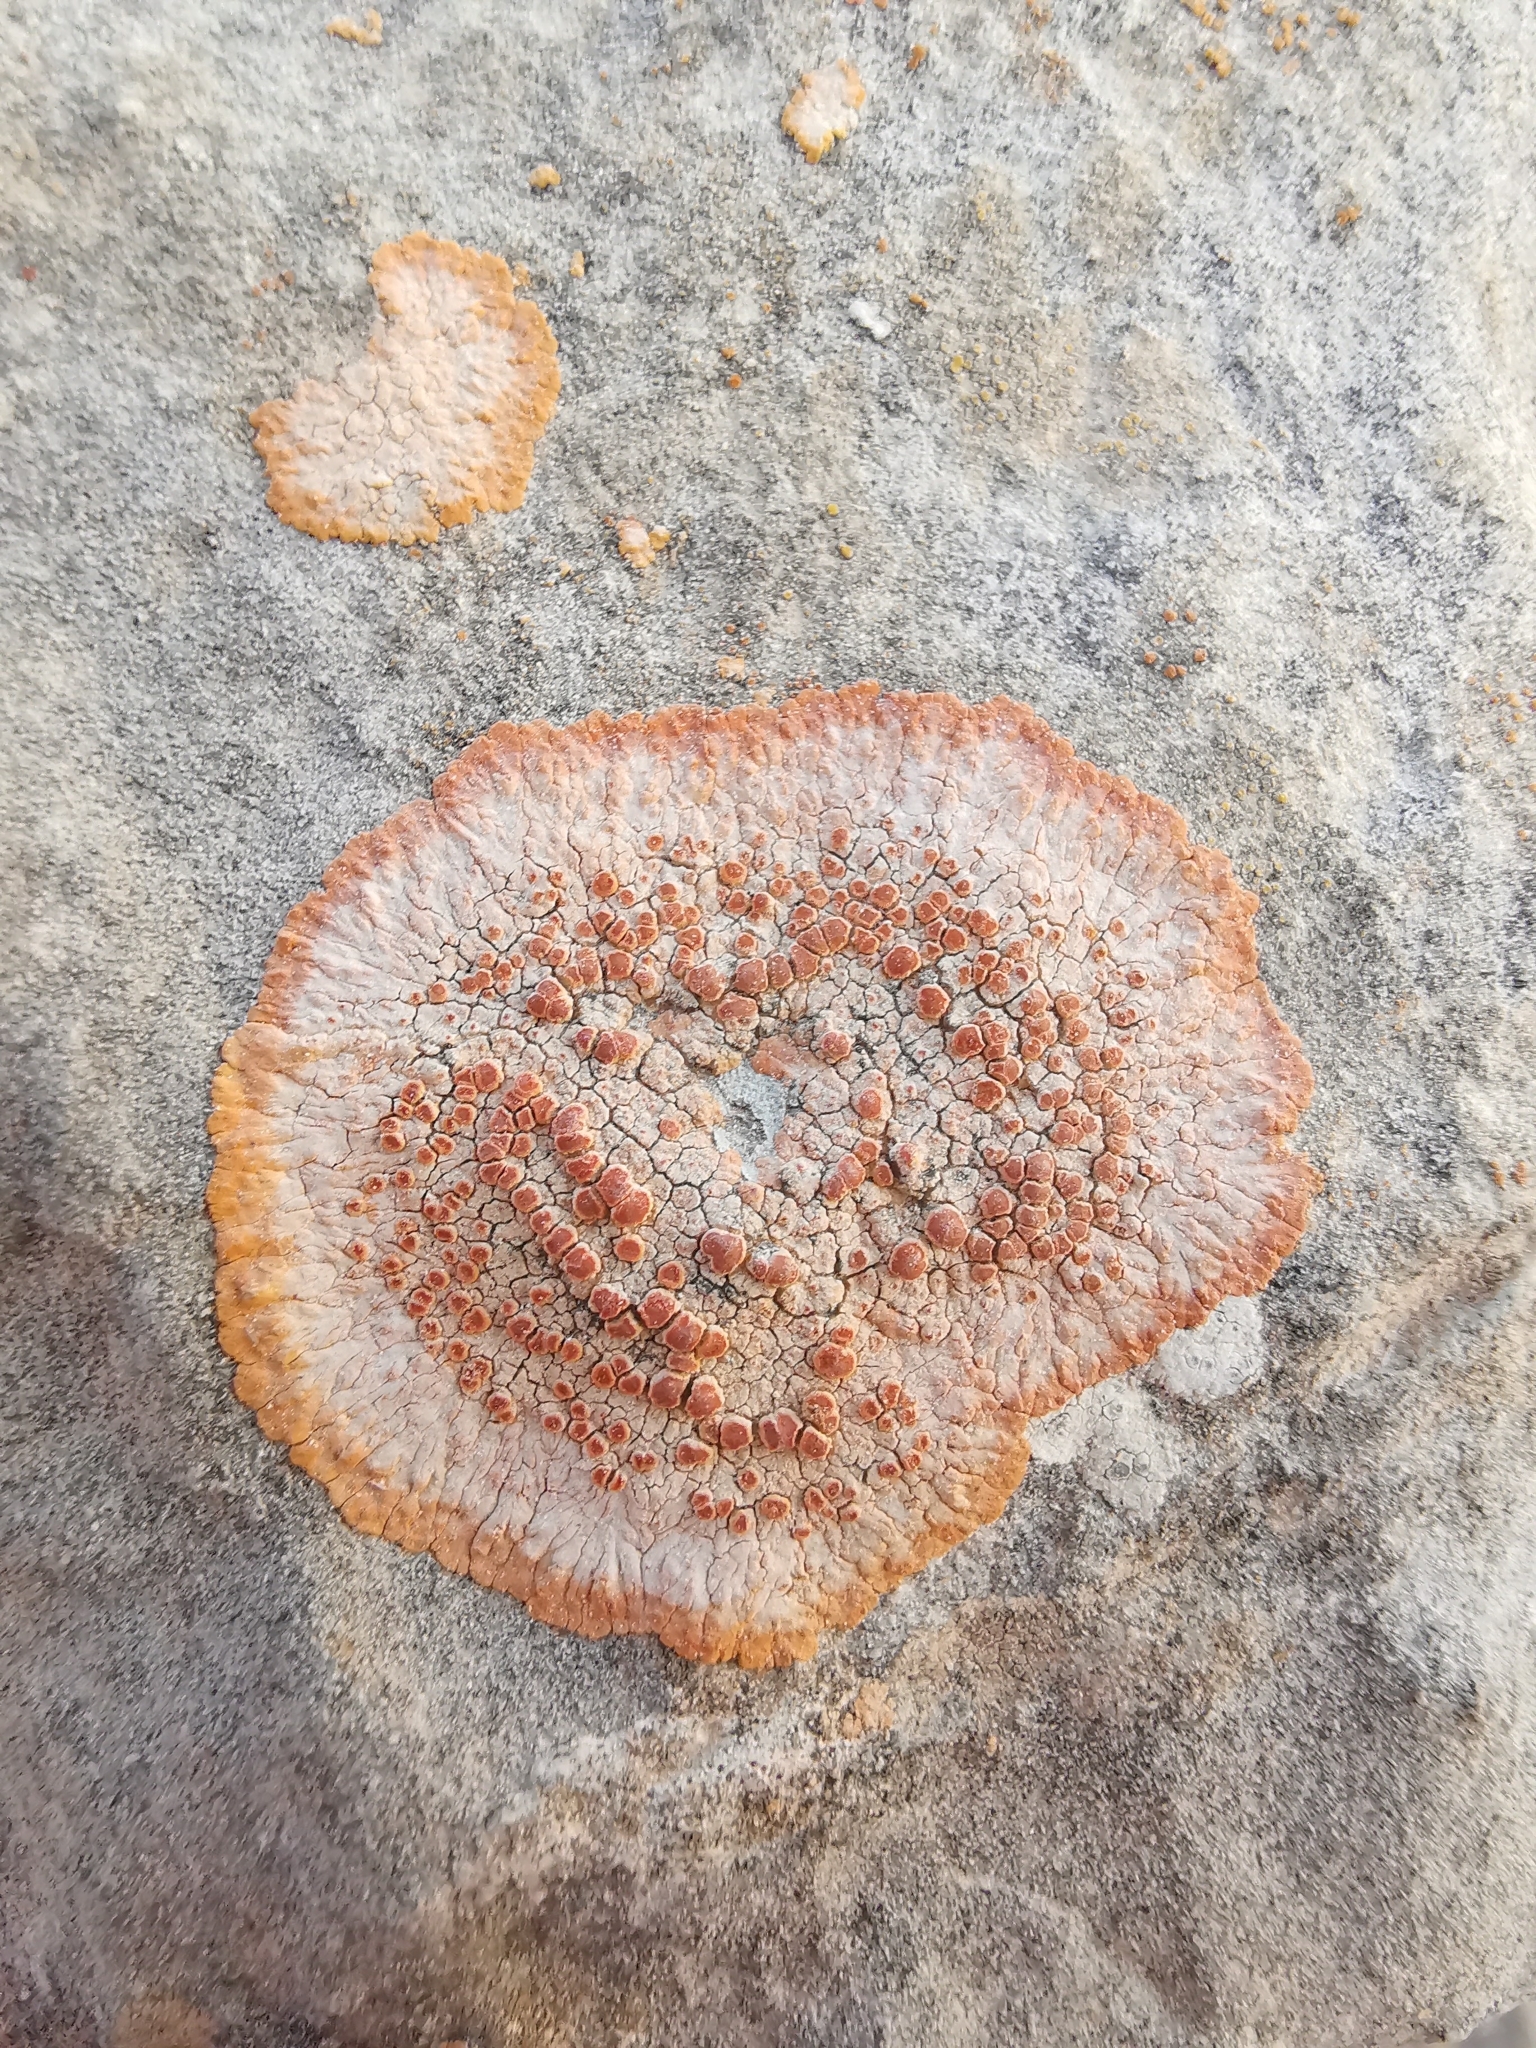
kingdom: Fungi
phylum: Ascomycota
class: Lecanoromycetes
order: Teloschistales
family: Teloschistaceae
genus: Variospora
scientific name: Variospora aurantia
